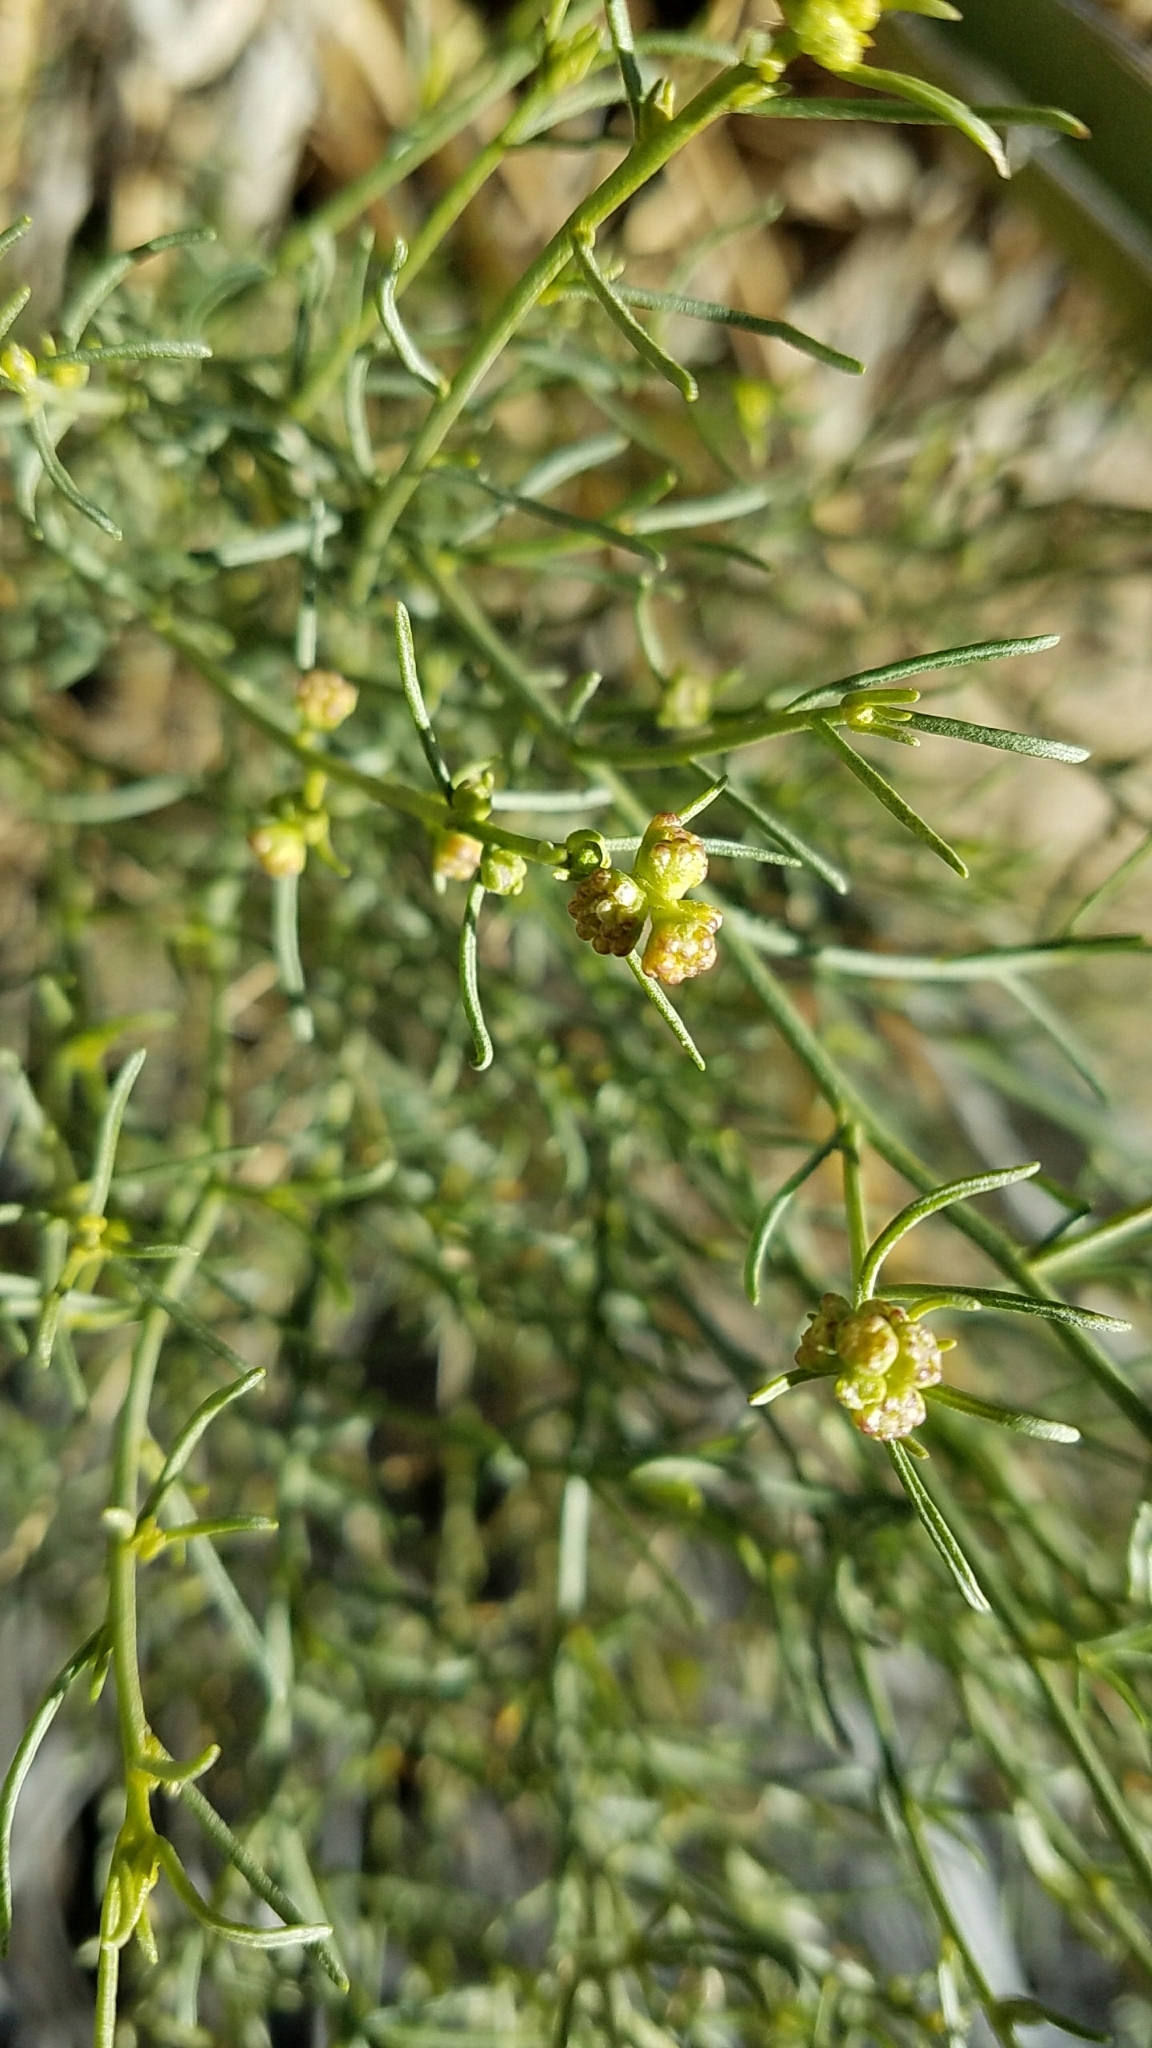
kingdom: Plantae
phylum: Tracheophyta
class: Magnoliopsida
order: Asterales
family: Asteraceae
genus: Ambrosia
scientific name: Ambrosia salsola
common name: Burrobrush
